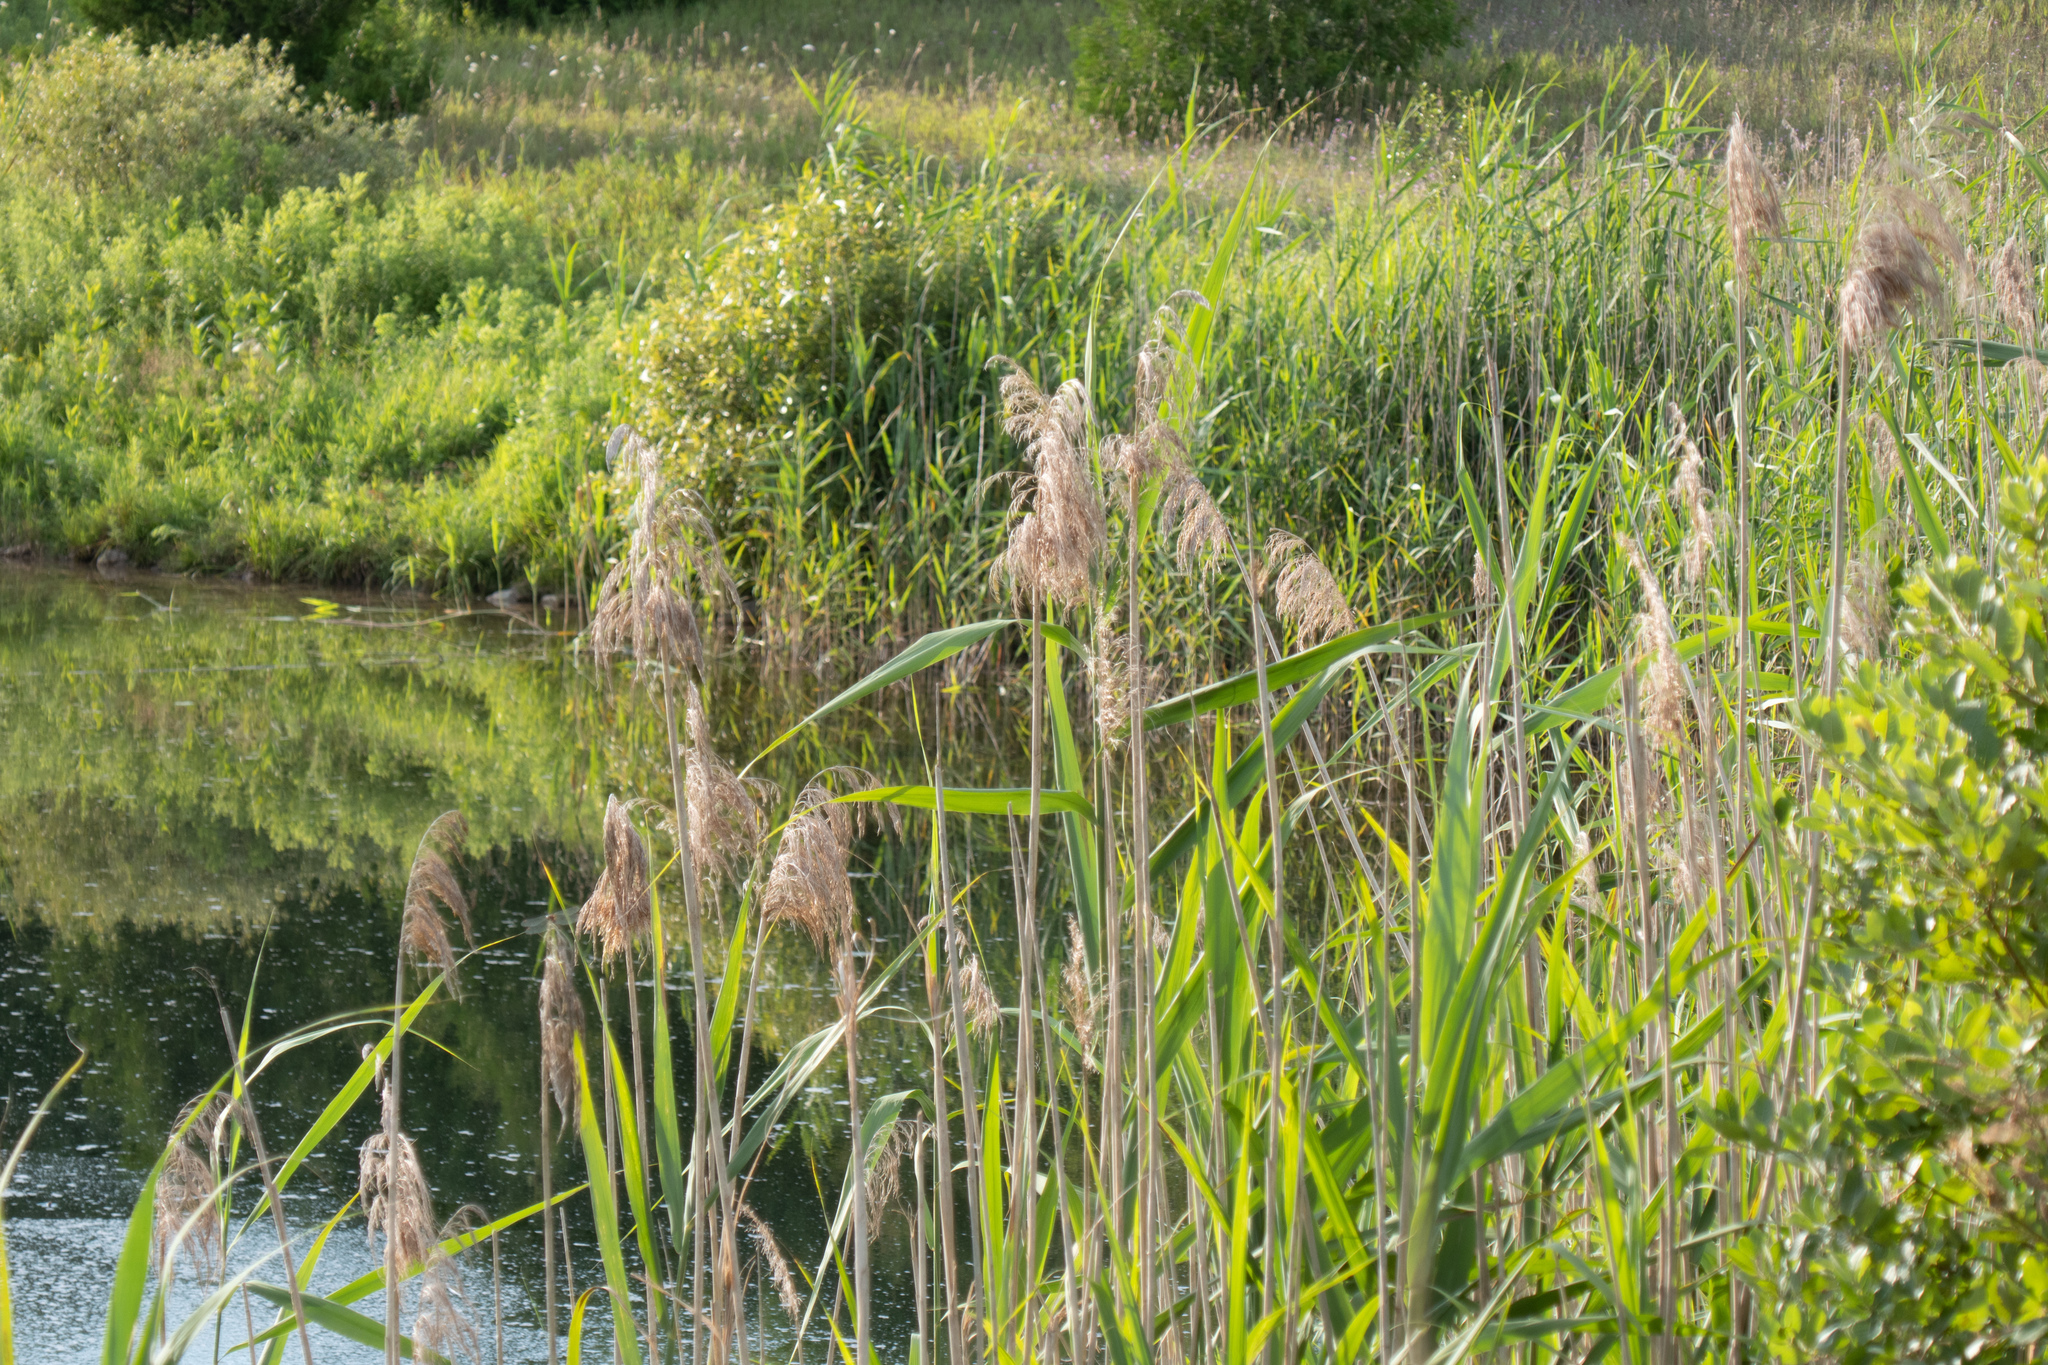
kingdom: Plantae
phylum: Tracheophyta
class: Liliopsida
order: Poales
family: Poaceae
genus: Phragmites
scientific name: Phragmites australis
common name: Common reed
